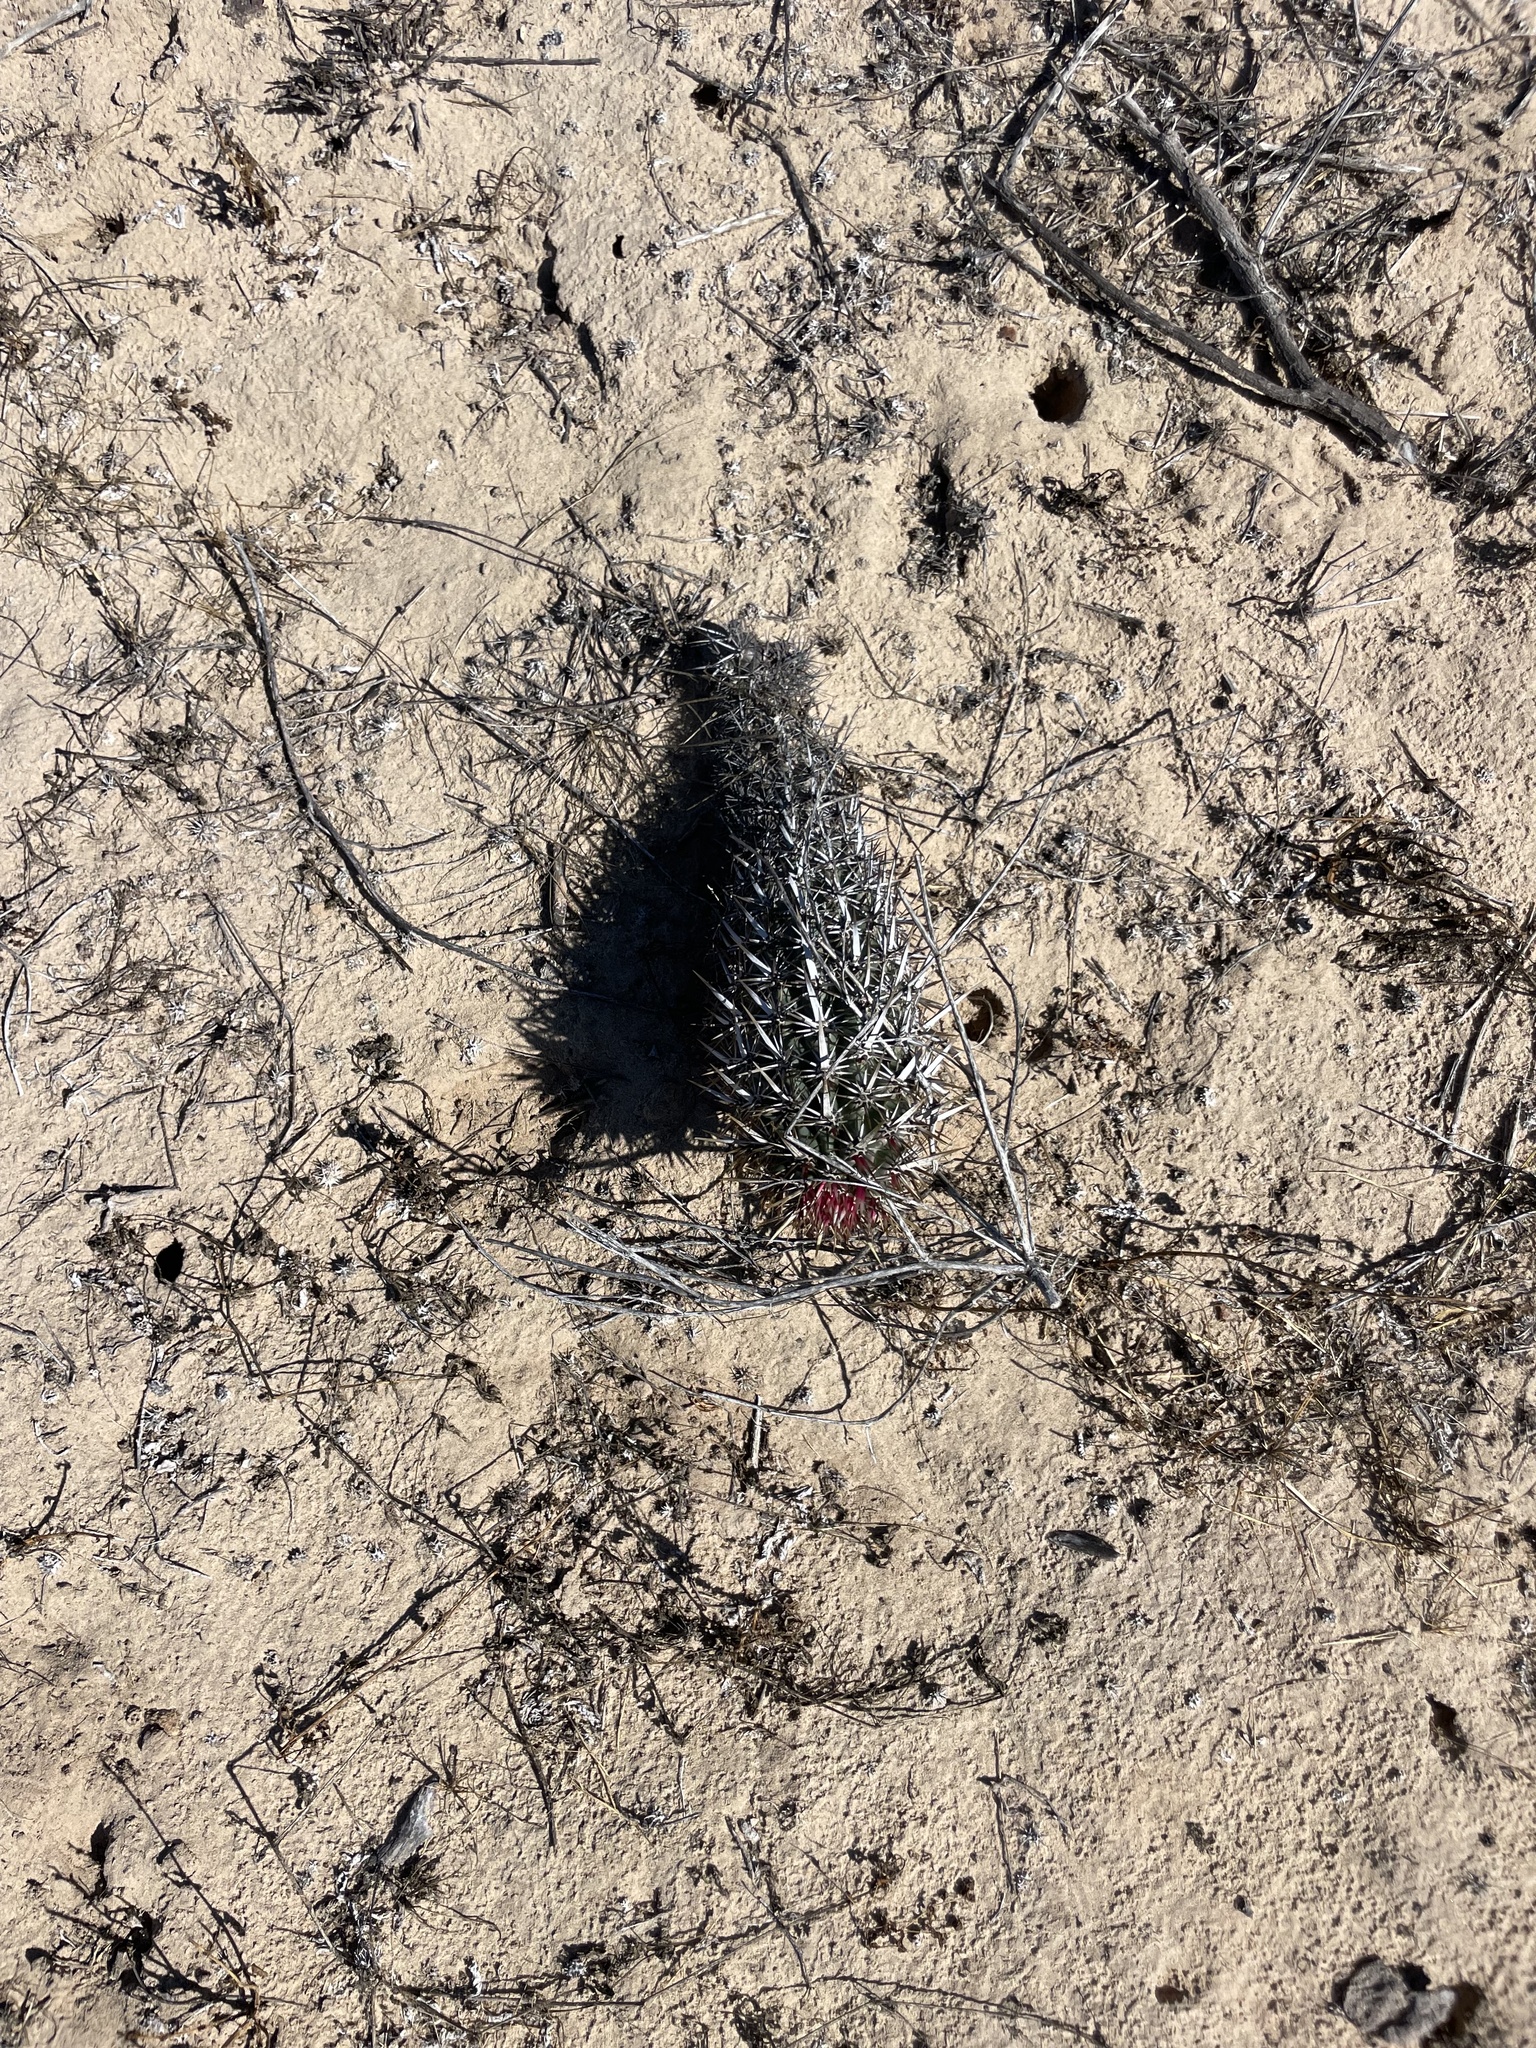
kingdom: Plantae
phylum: Tracheophyta
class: Magnoliopsida
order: Caryophyllales
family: Cactaceae
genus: Stenocereus
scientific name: Stenocereus eruca
